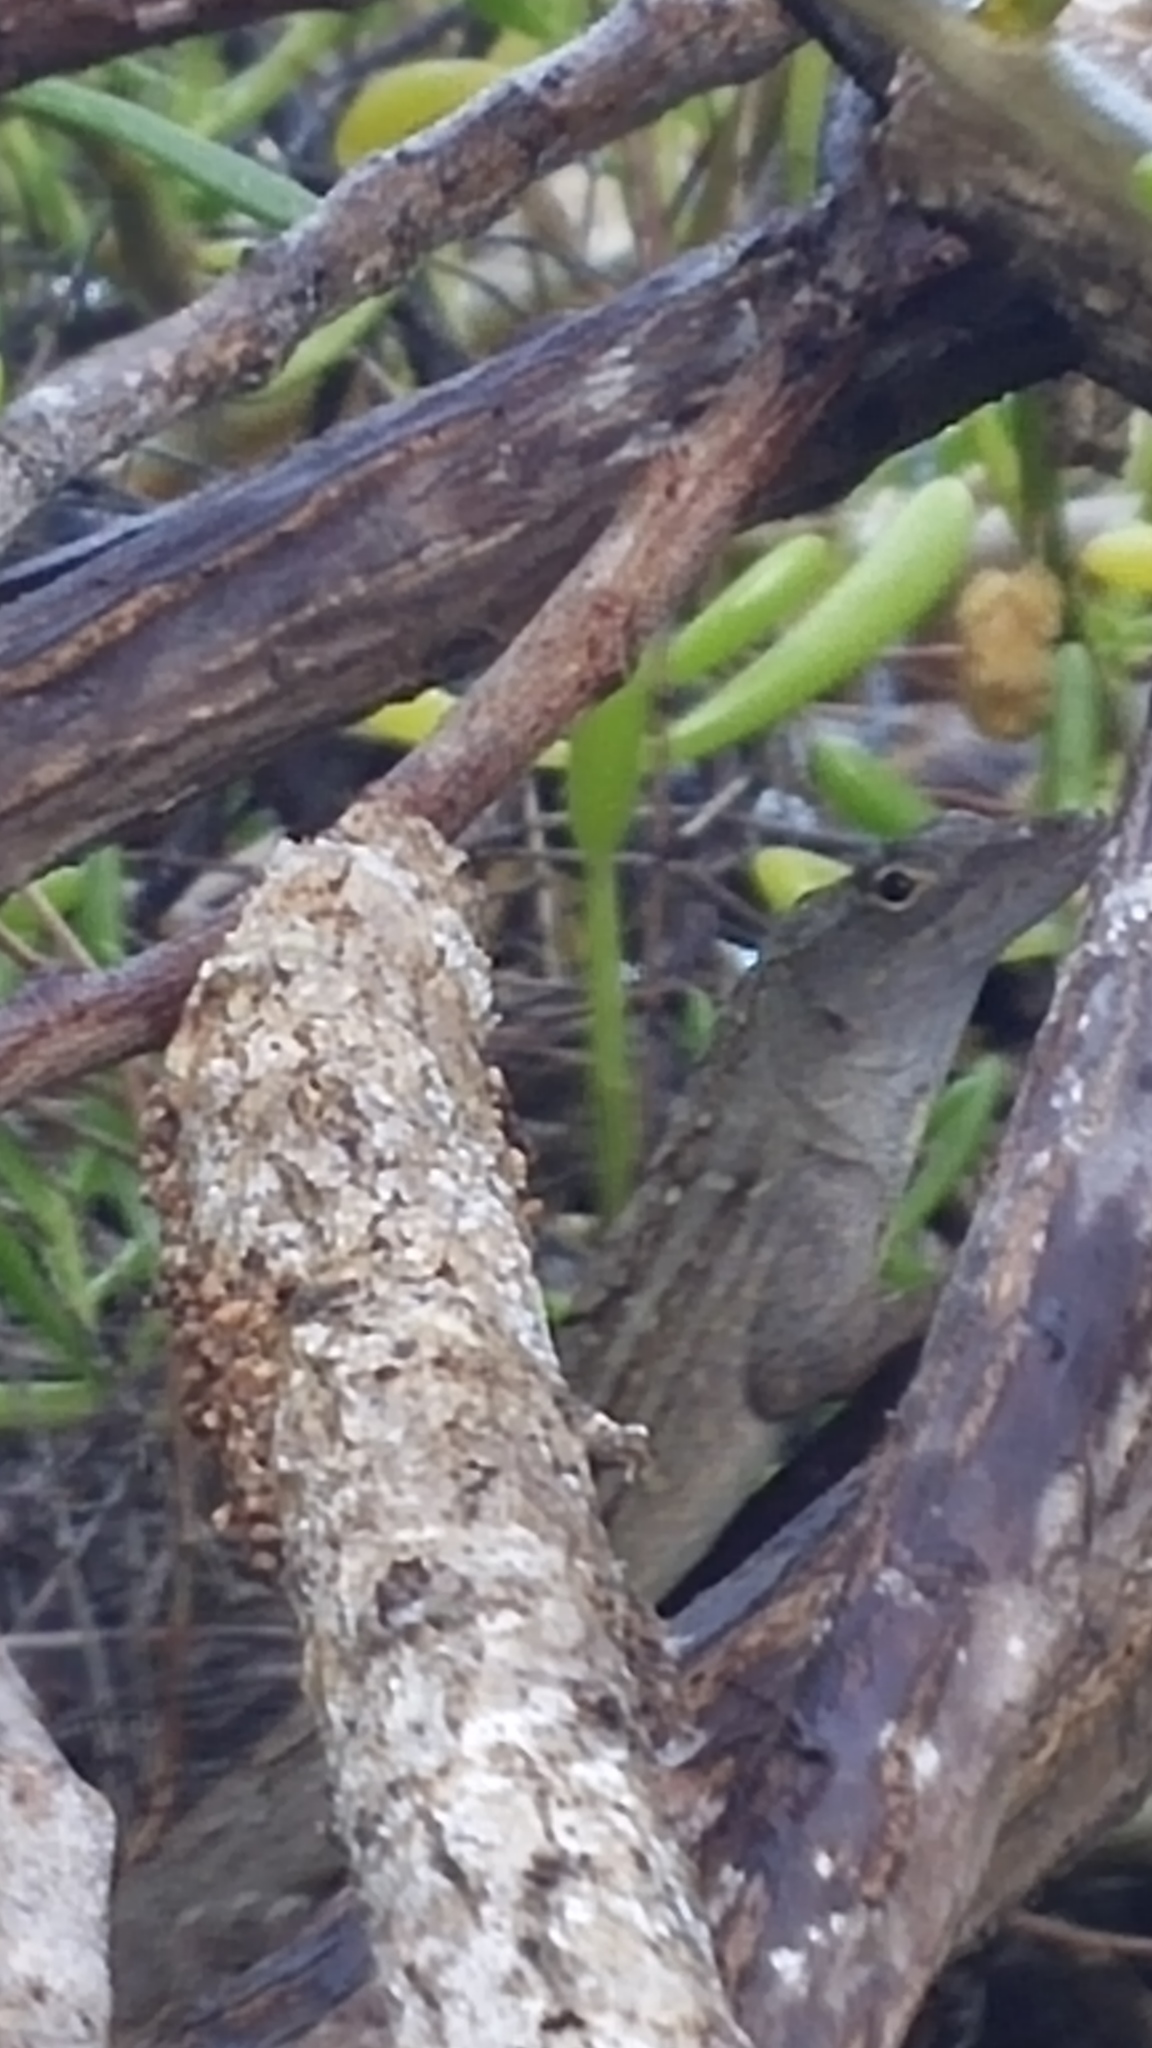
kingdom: Animalia
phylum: Chordata
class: Squamata
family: Dactyloidae
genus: Anolis
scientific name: Anolis sagrei
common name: Brown anole
